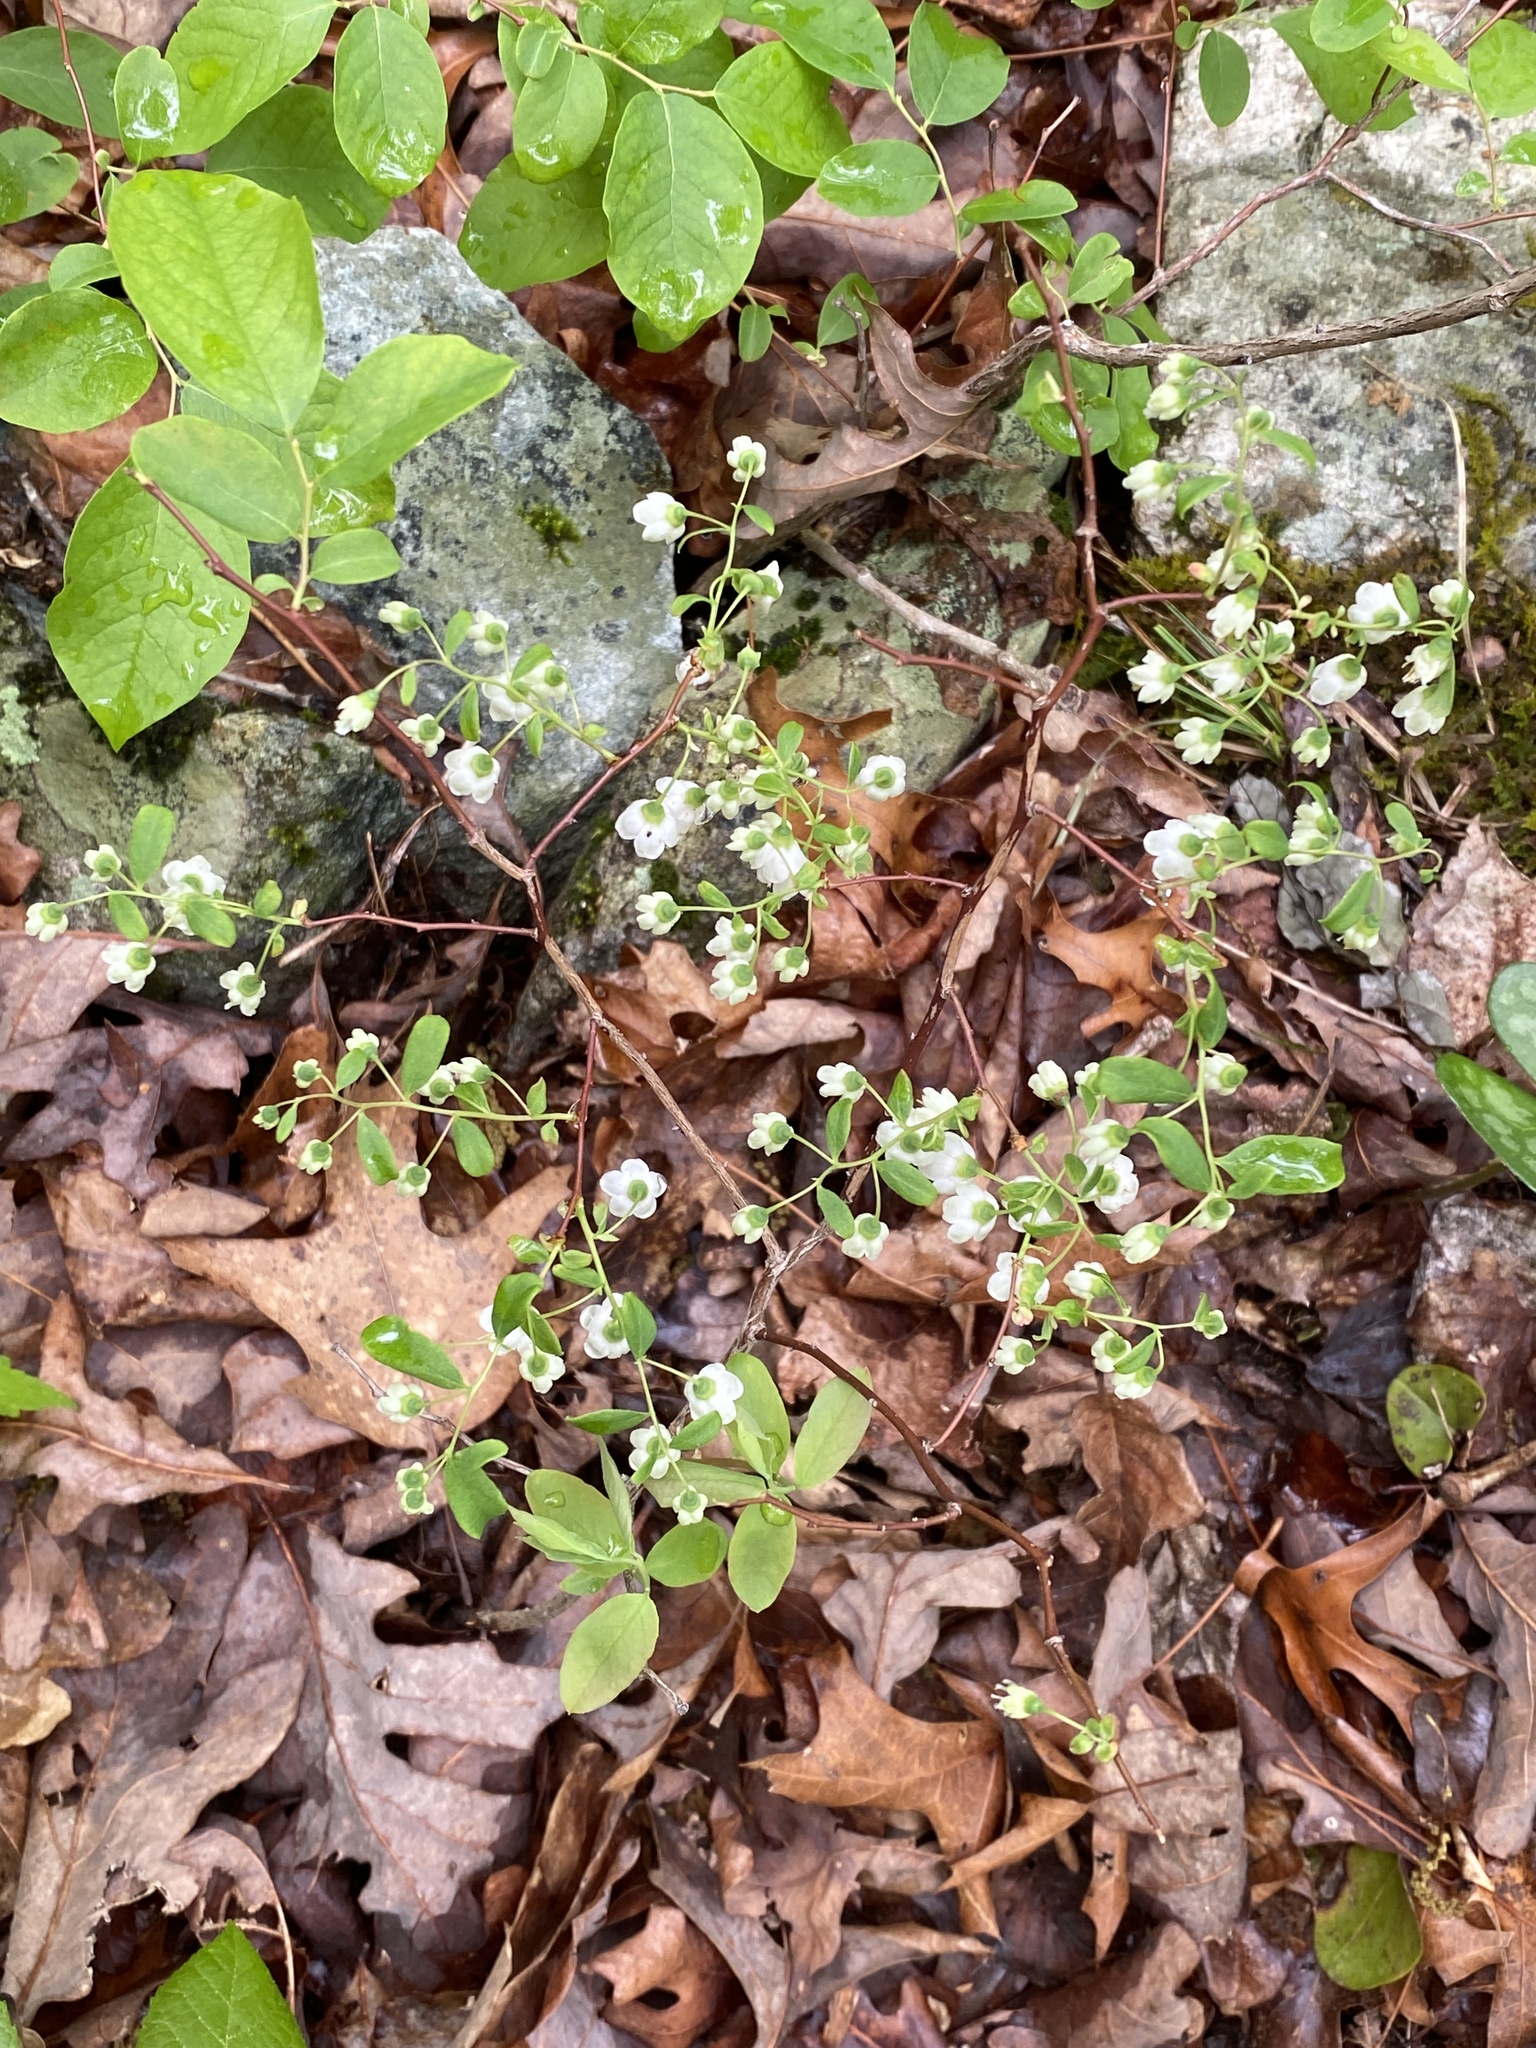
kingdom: Plantae
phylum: Tracheophyta
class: Magnoliopsida
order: Ericales
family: Ericaceae
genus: Vaccinium
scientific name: Vaccinium stamineum
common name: Deerberry
